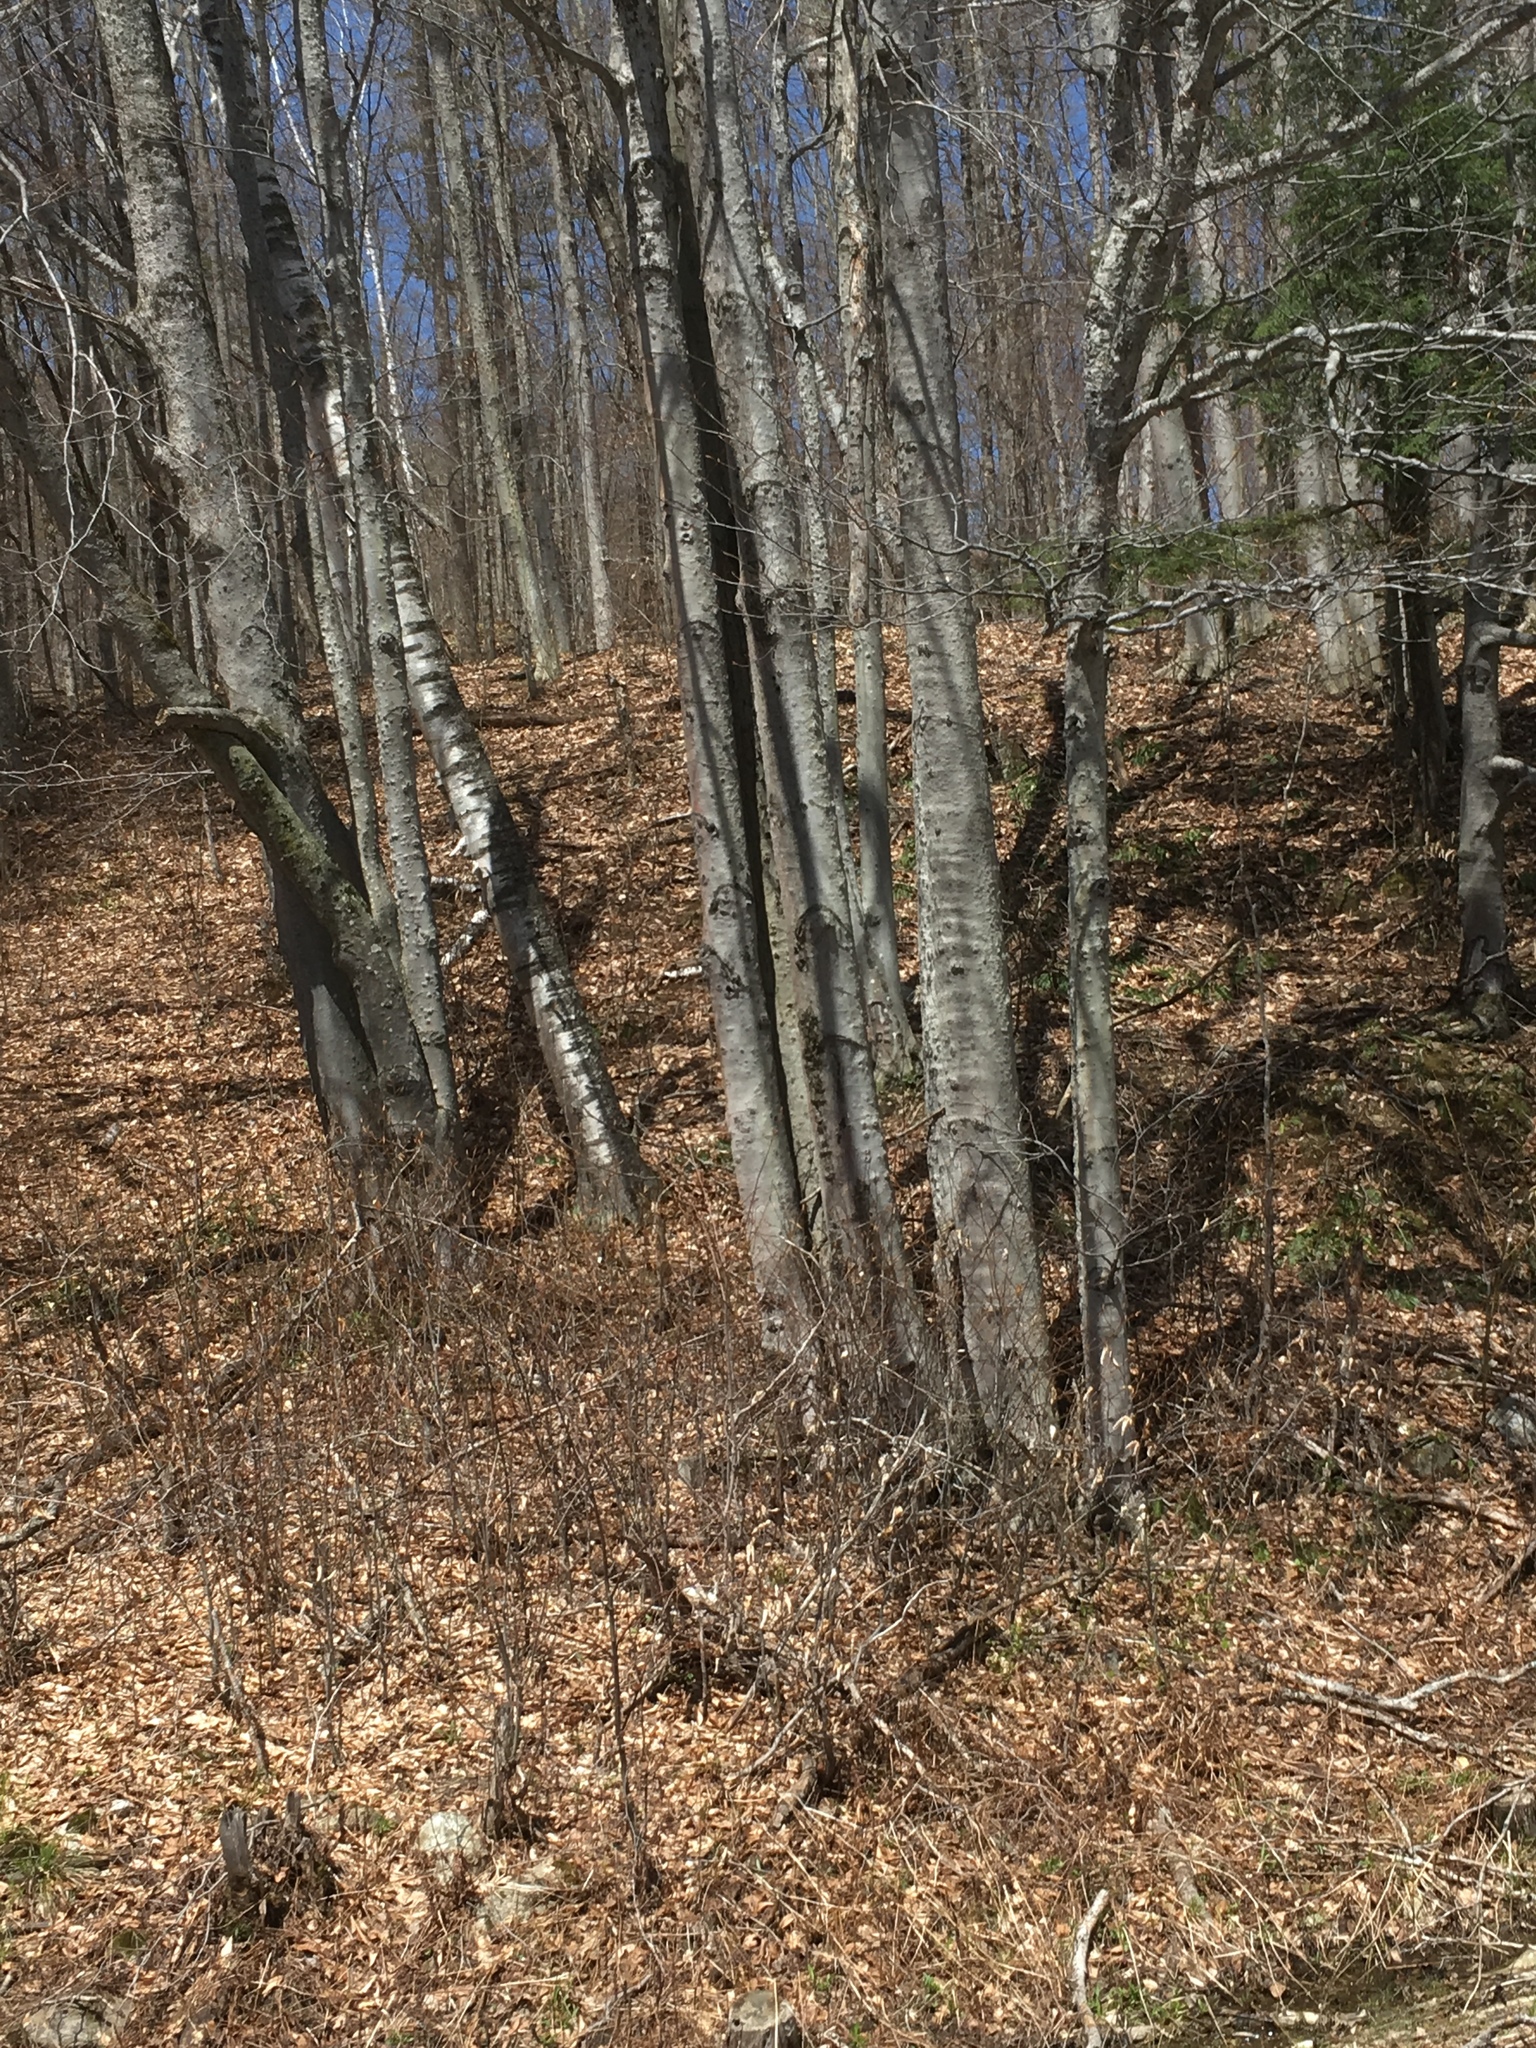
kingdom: Plantae
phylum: Tracheophyta
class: Magnoliopsida
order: Fagales
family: Fagaceae
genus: Fagus
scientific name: Fagus grandifolia
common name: American beech
